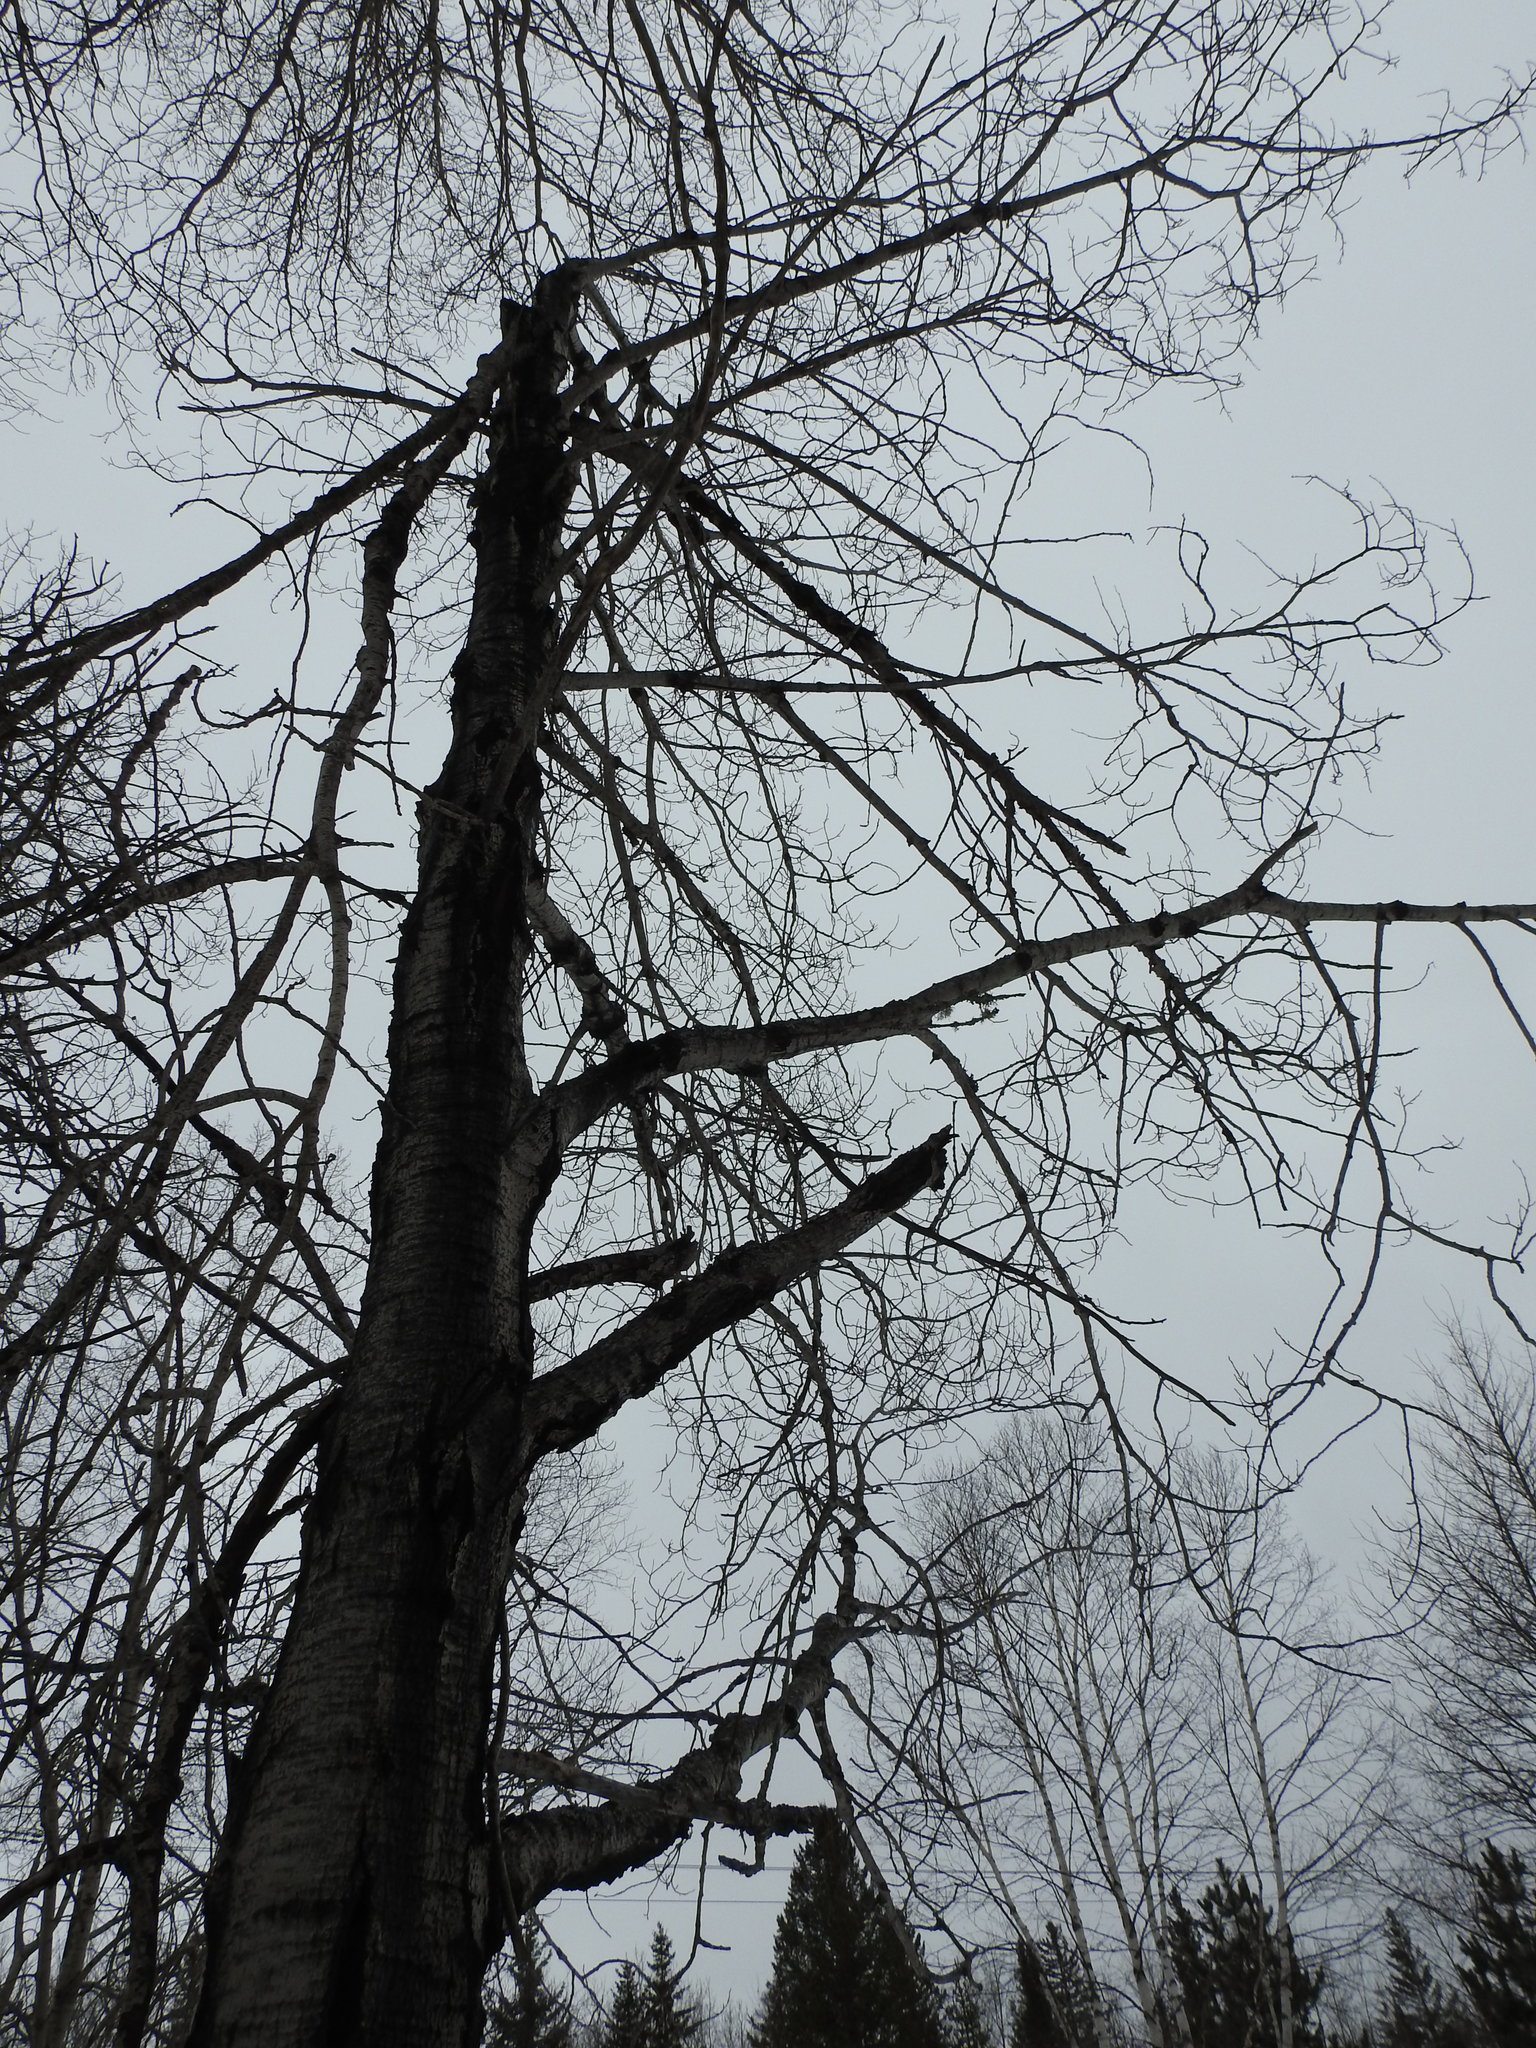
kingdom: Plantae
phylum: Tracheophyta
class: Magnoliopsida
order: Malpighiales
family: Salicaceae
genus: Populus
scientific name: Populus tremuloides
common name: Quaking aspen
